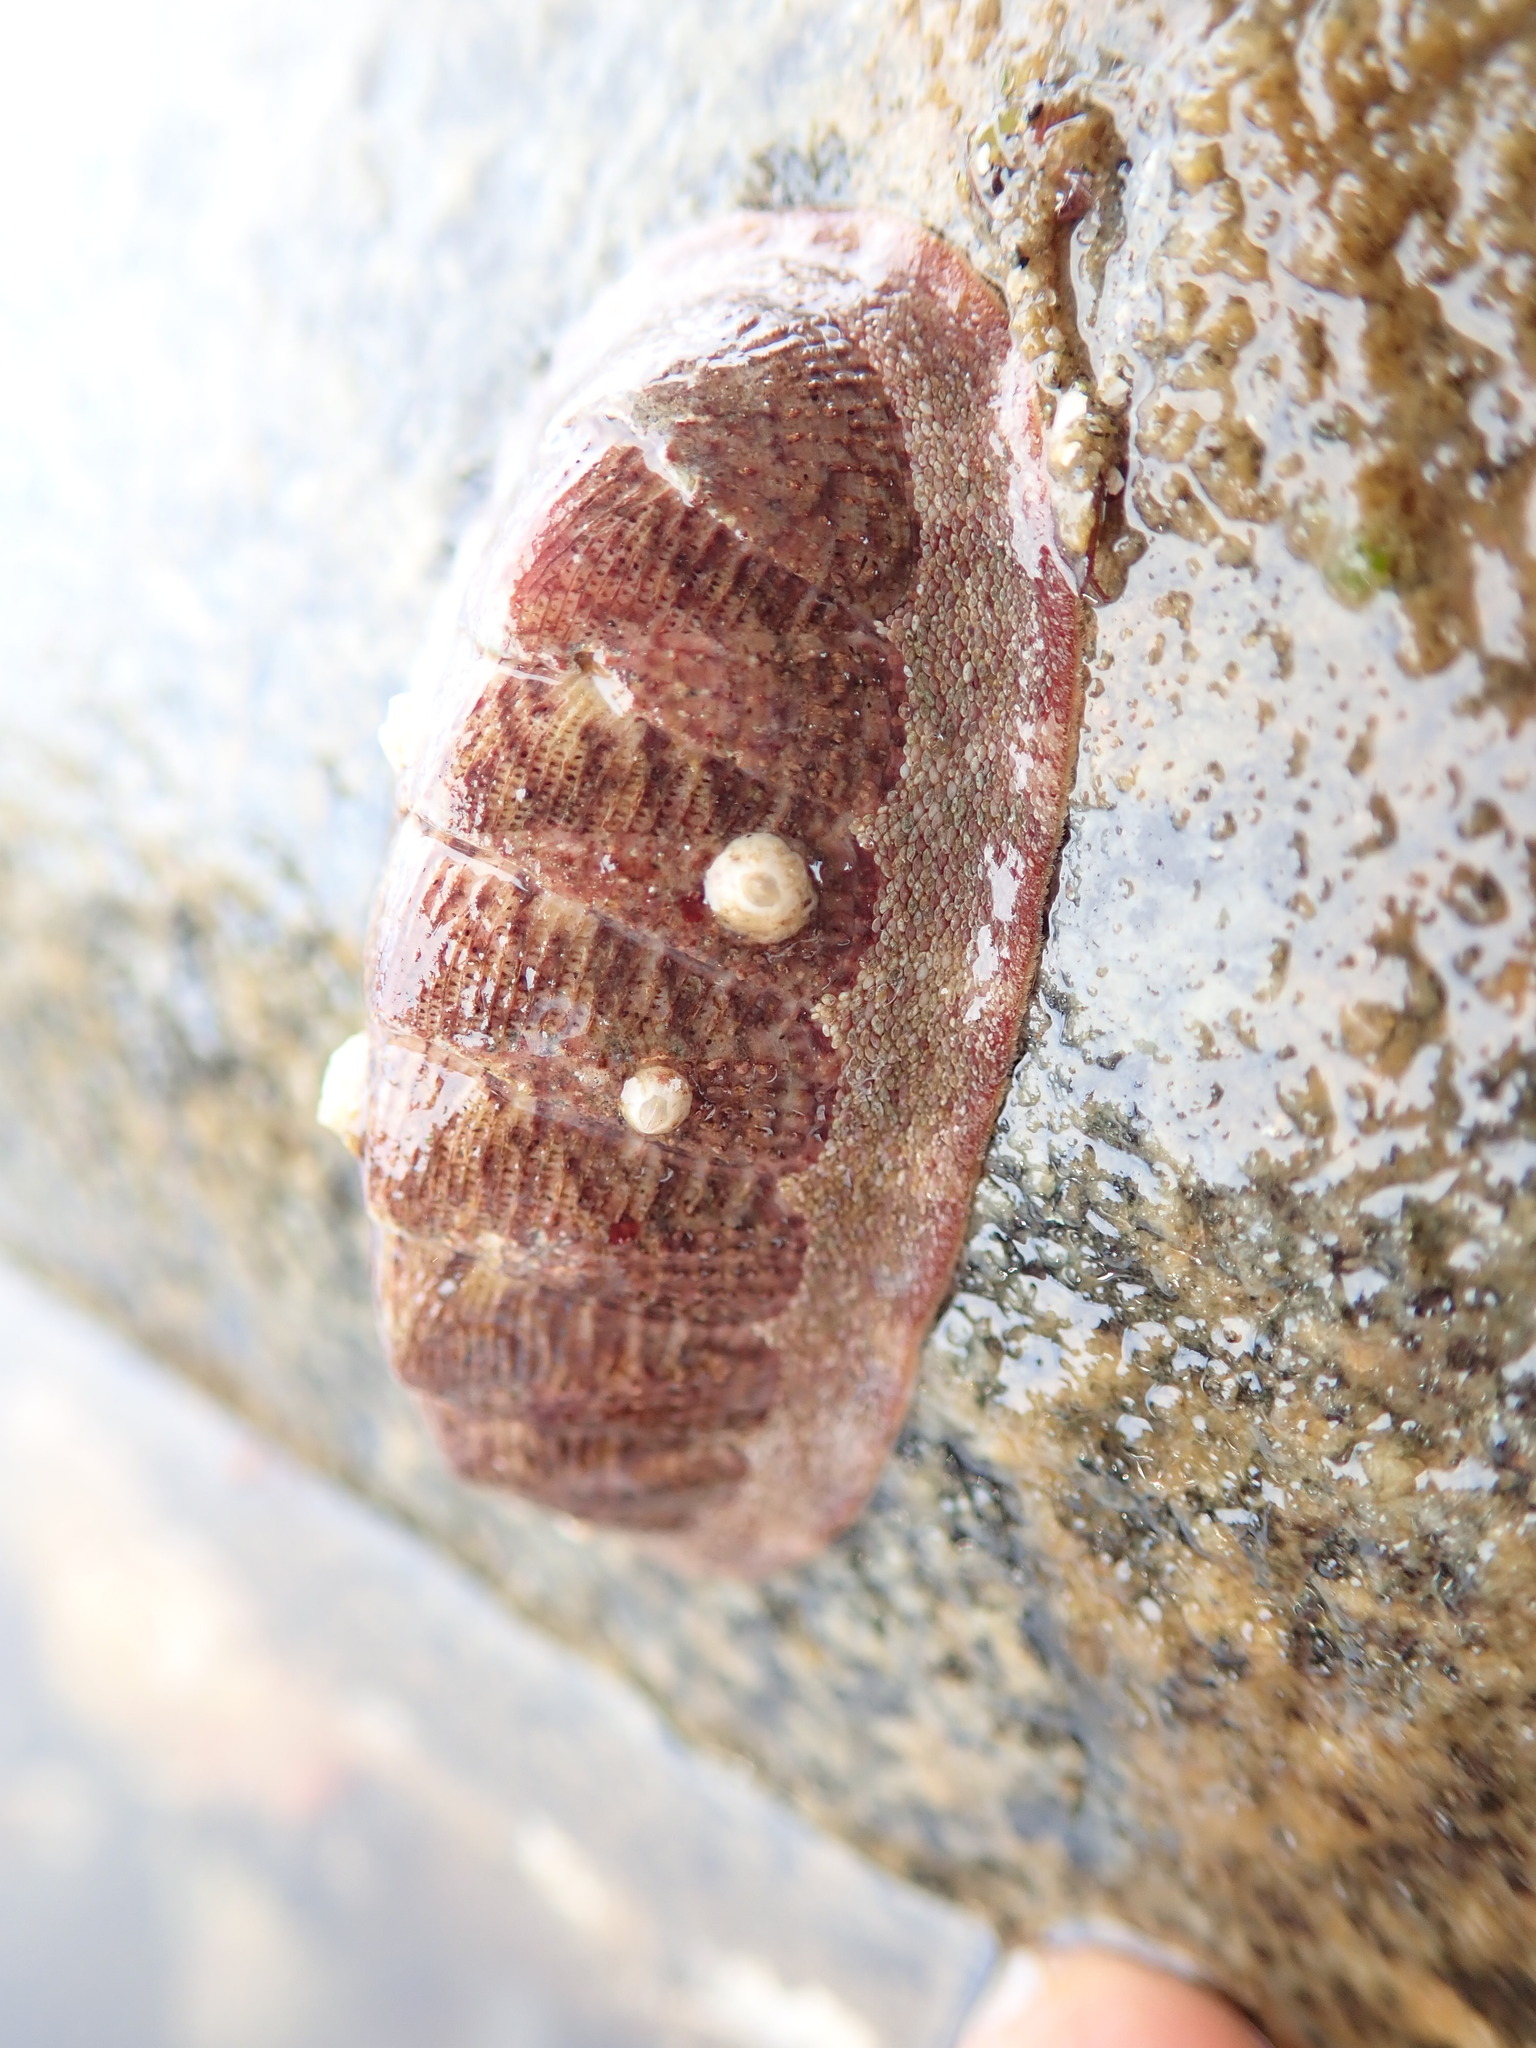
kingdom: Animalia
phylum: Mollusca
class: Polyplacophora
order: Chitonida
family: Ischnochitonidae
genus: Lepidozona
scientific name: Lepidozona mertensii
